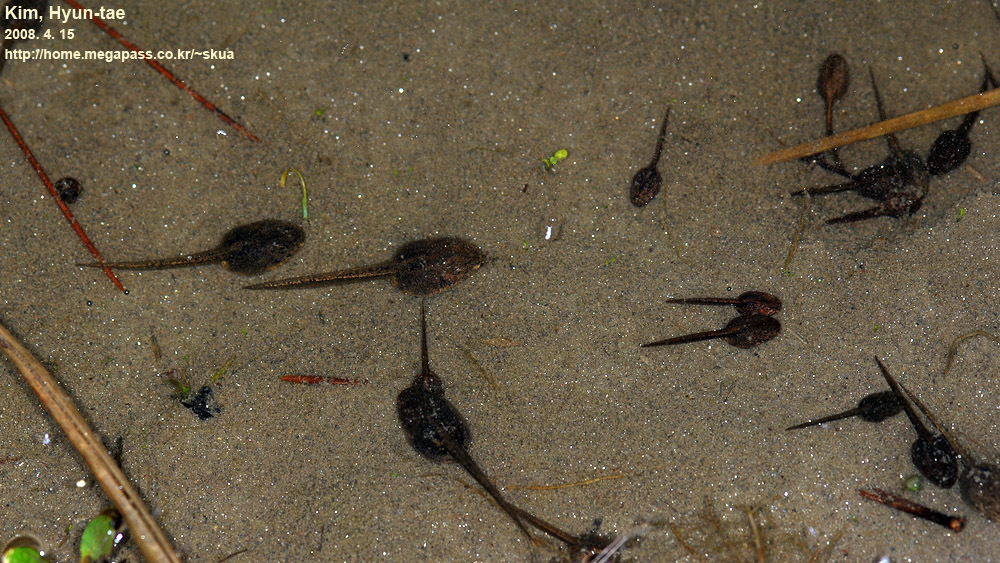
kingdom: Animalia
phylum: Chordata
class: Amphibia
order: Anura
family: Ranidae
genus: Rana
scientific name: Rana coreana
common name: Korean brown frog
